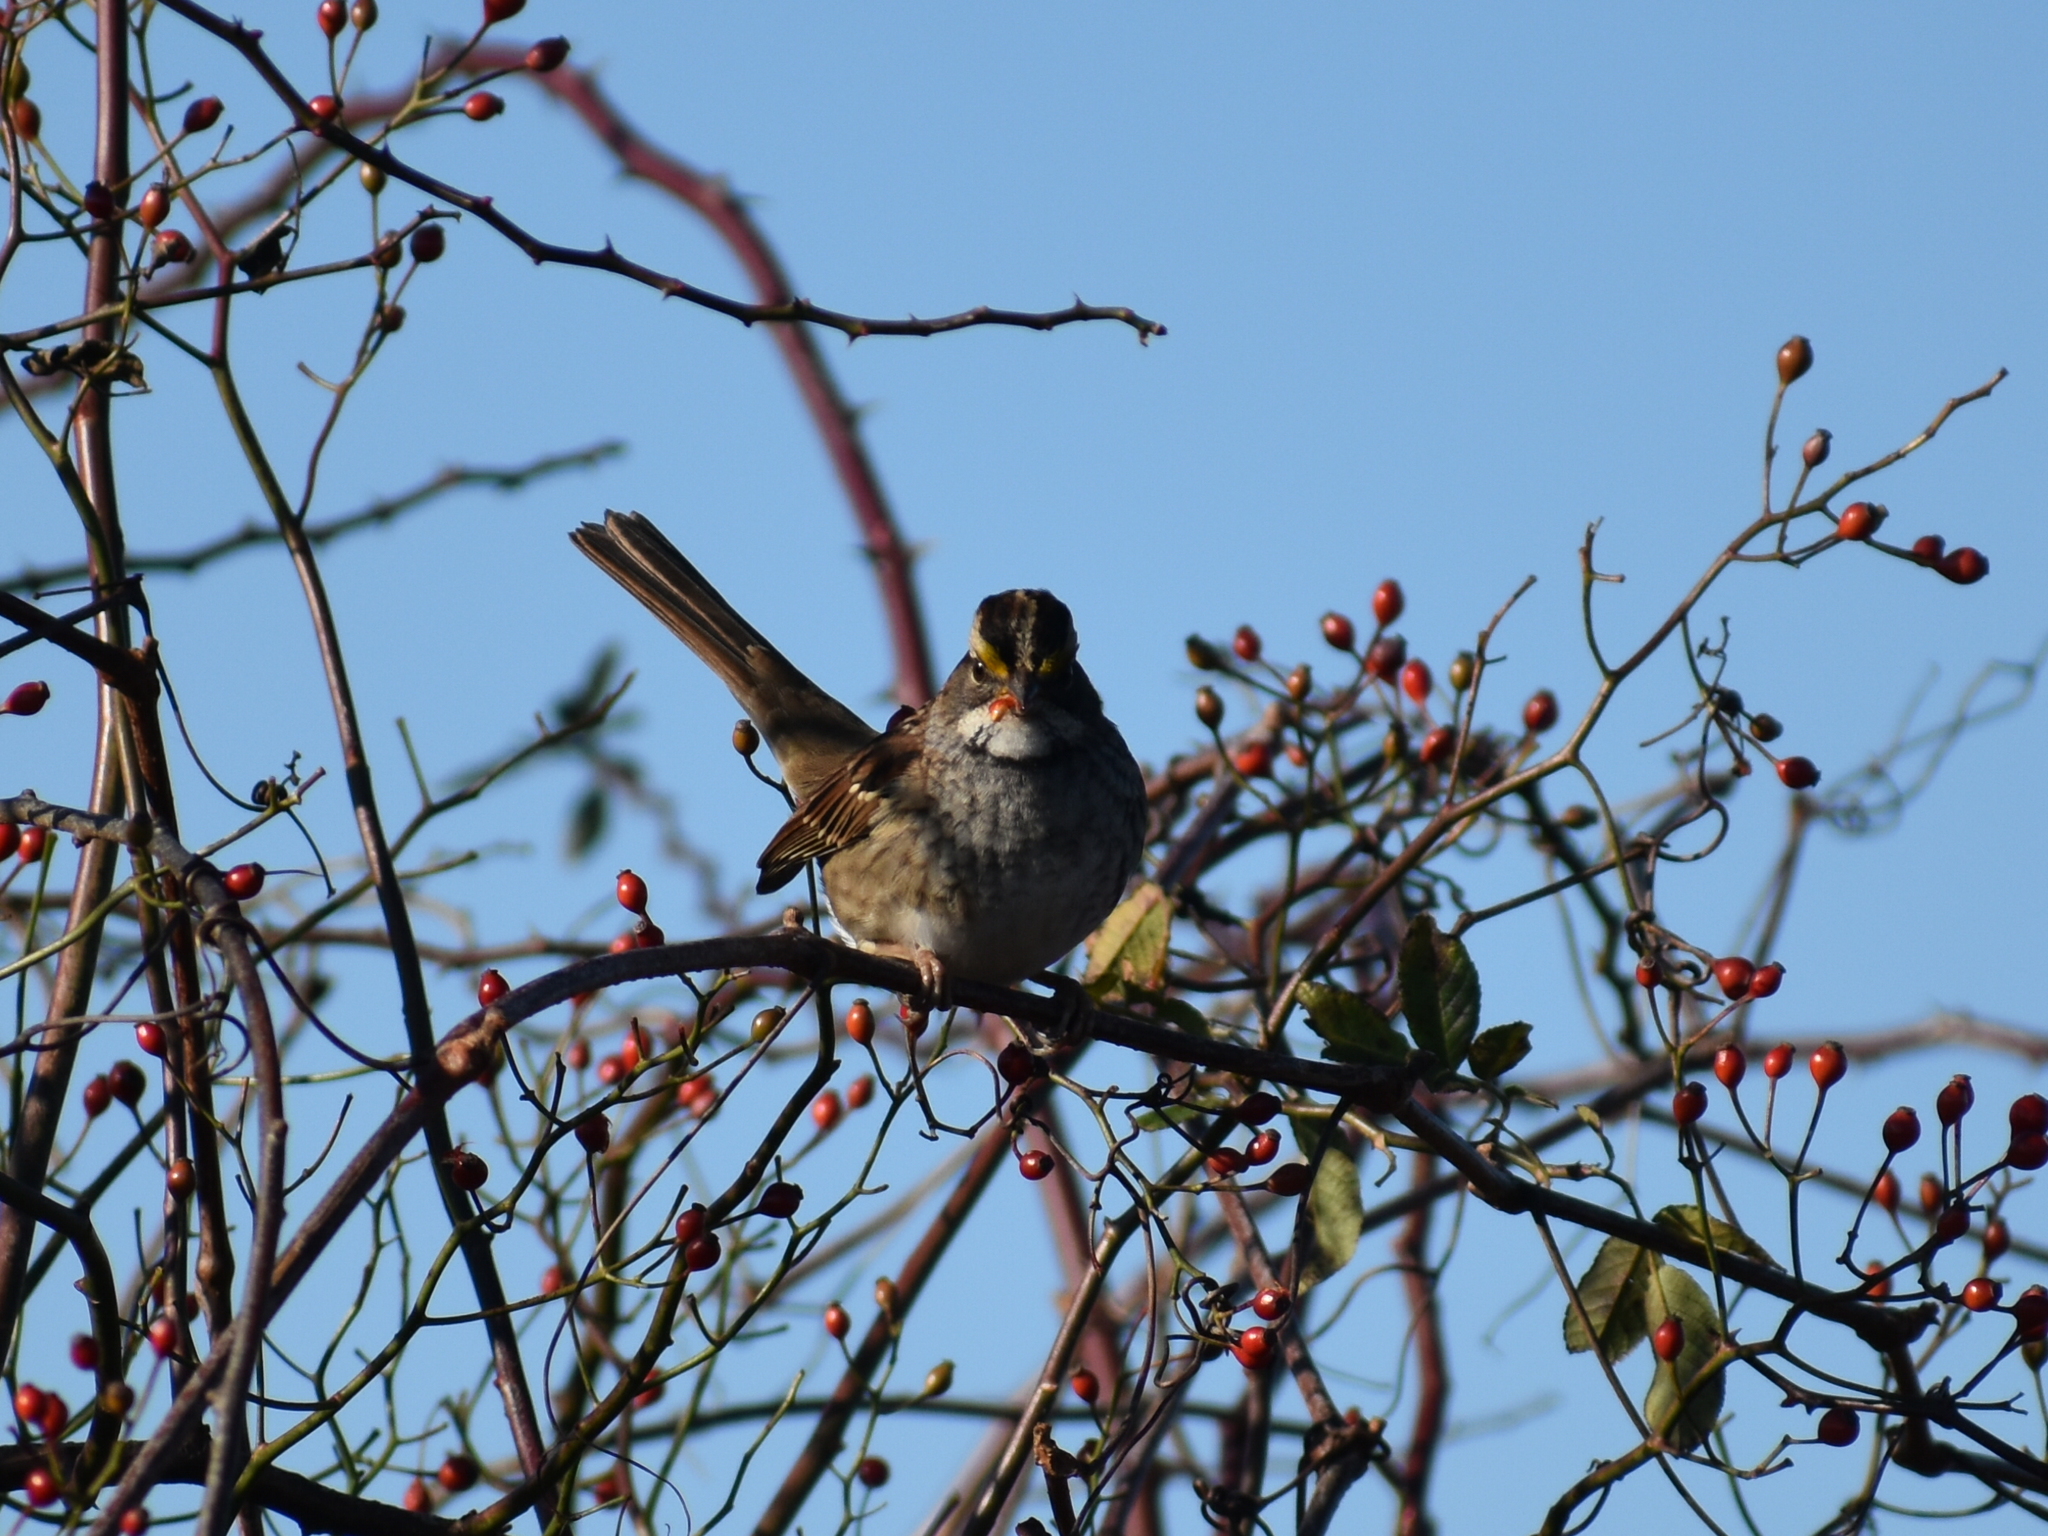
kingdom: Animalia
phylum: Chordata
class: Aves
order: Passeriformes
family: Passerellidae
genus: Zonotrichia
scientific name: Zonotrichia albicollis
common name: White-throated sparrow
